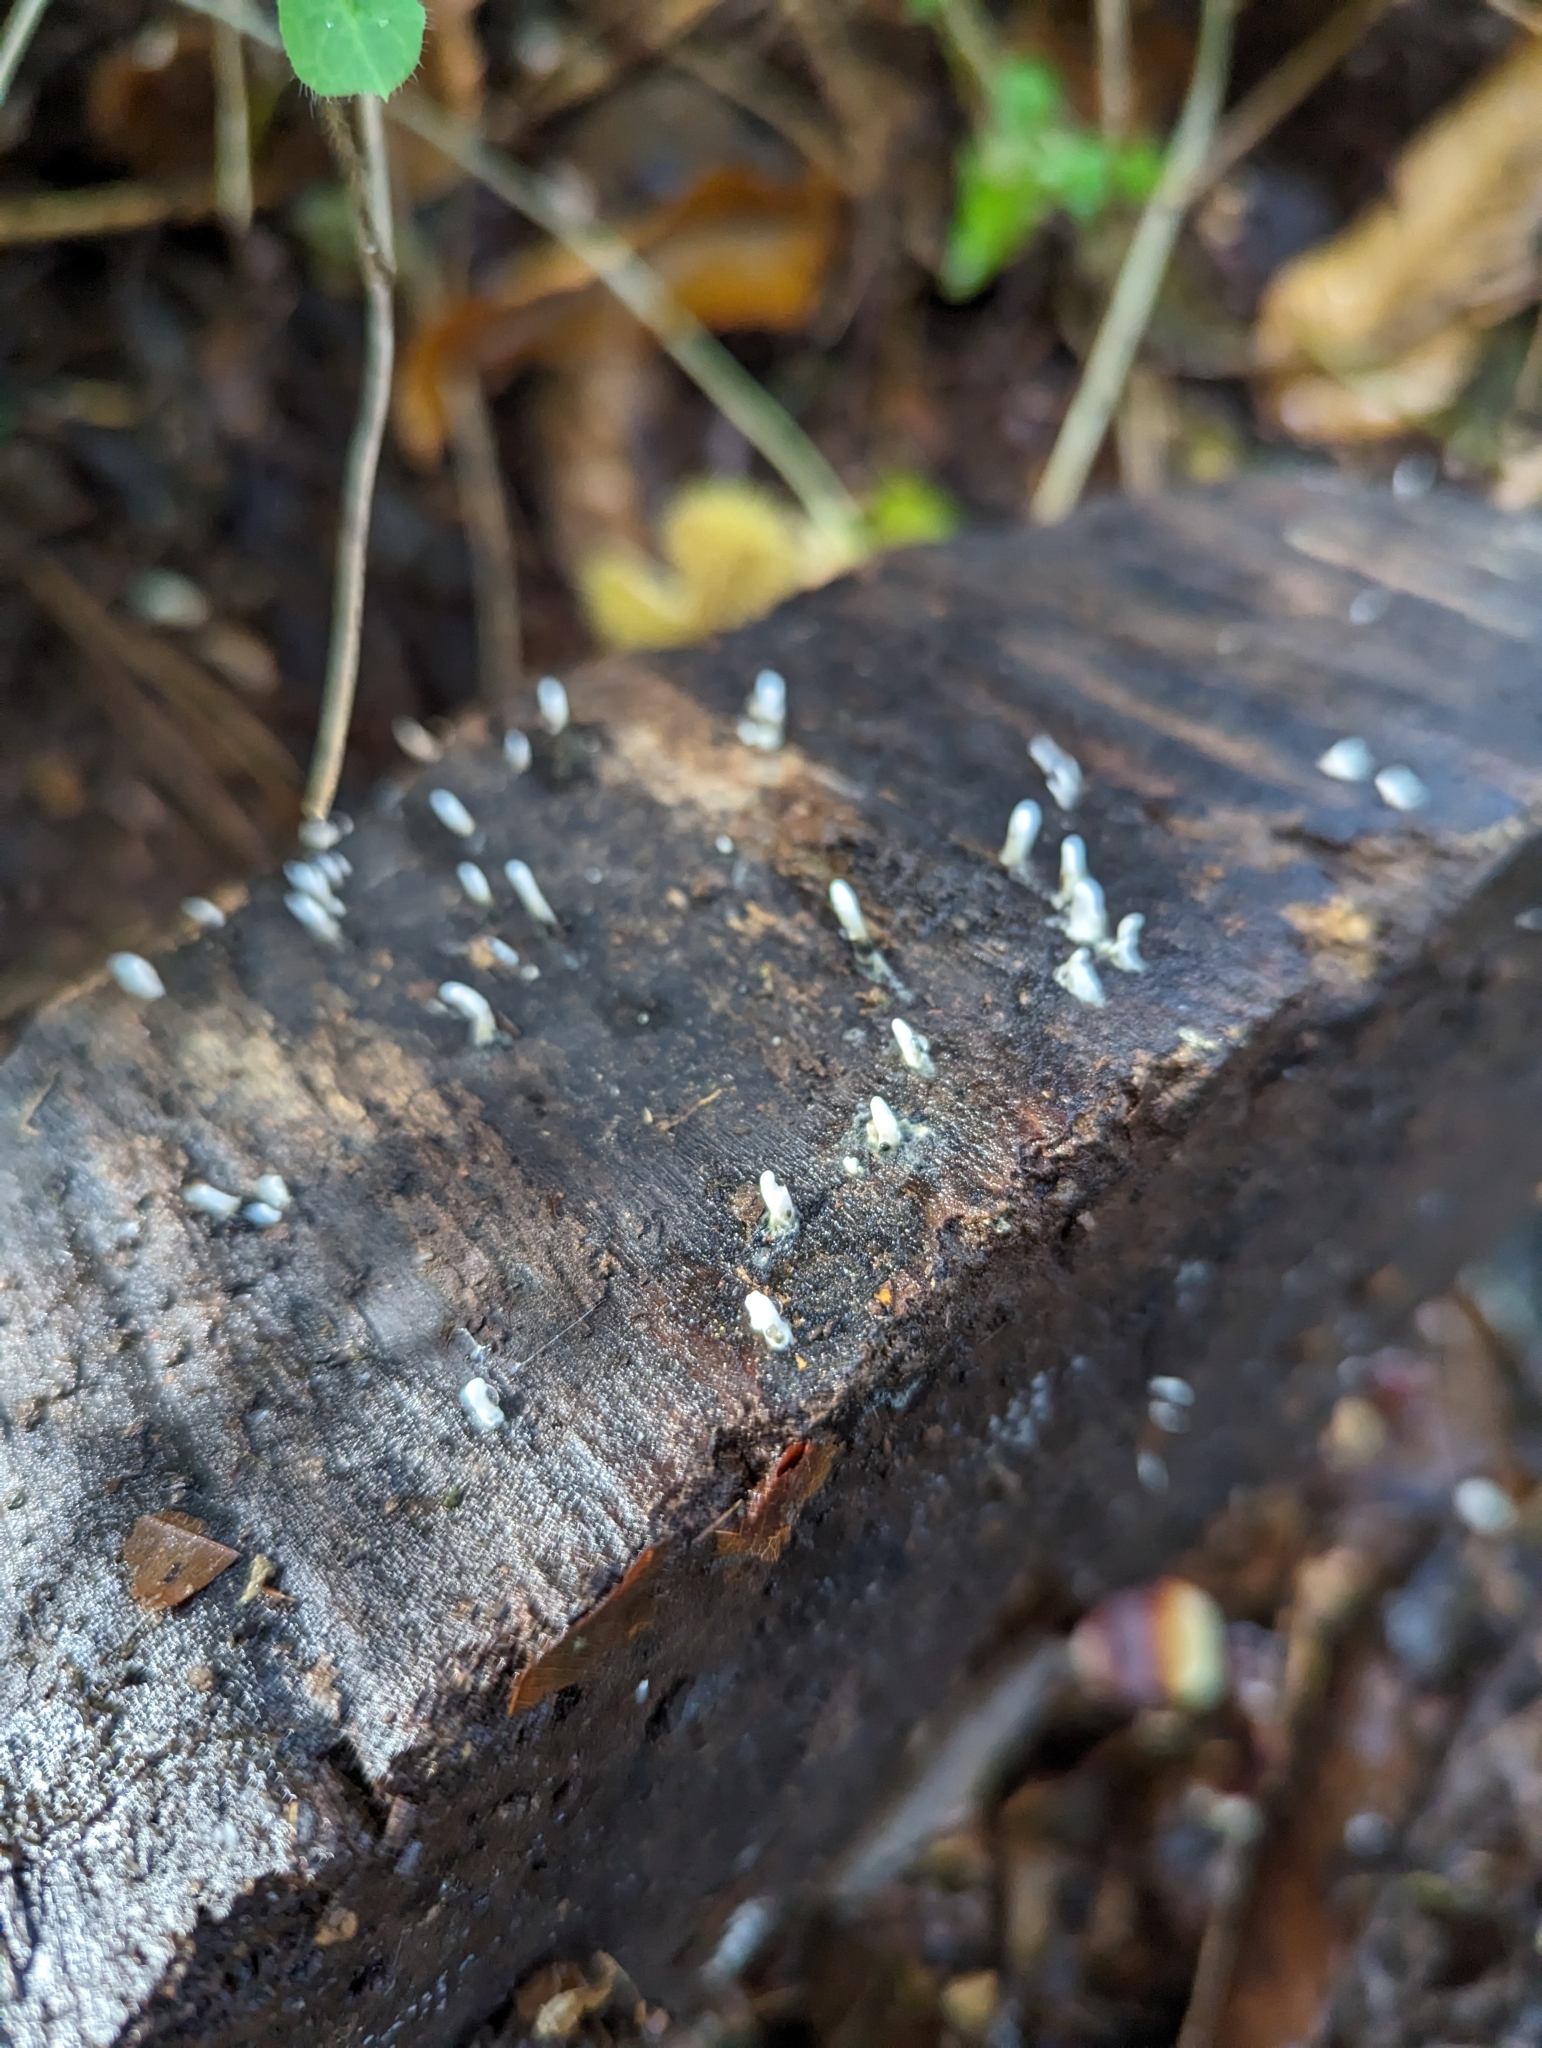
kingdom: Fungi
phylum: Ascomycota
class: Sordariomycetes
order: Xylariales
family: Xylariaceae
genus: Xylaria
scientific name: Xylaria hypoxylon
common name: Candle-snuff fungus
